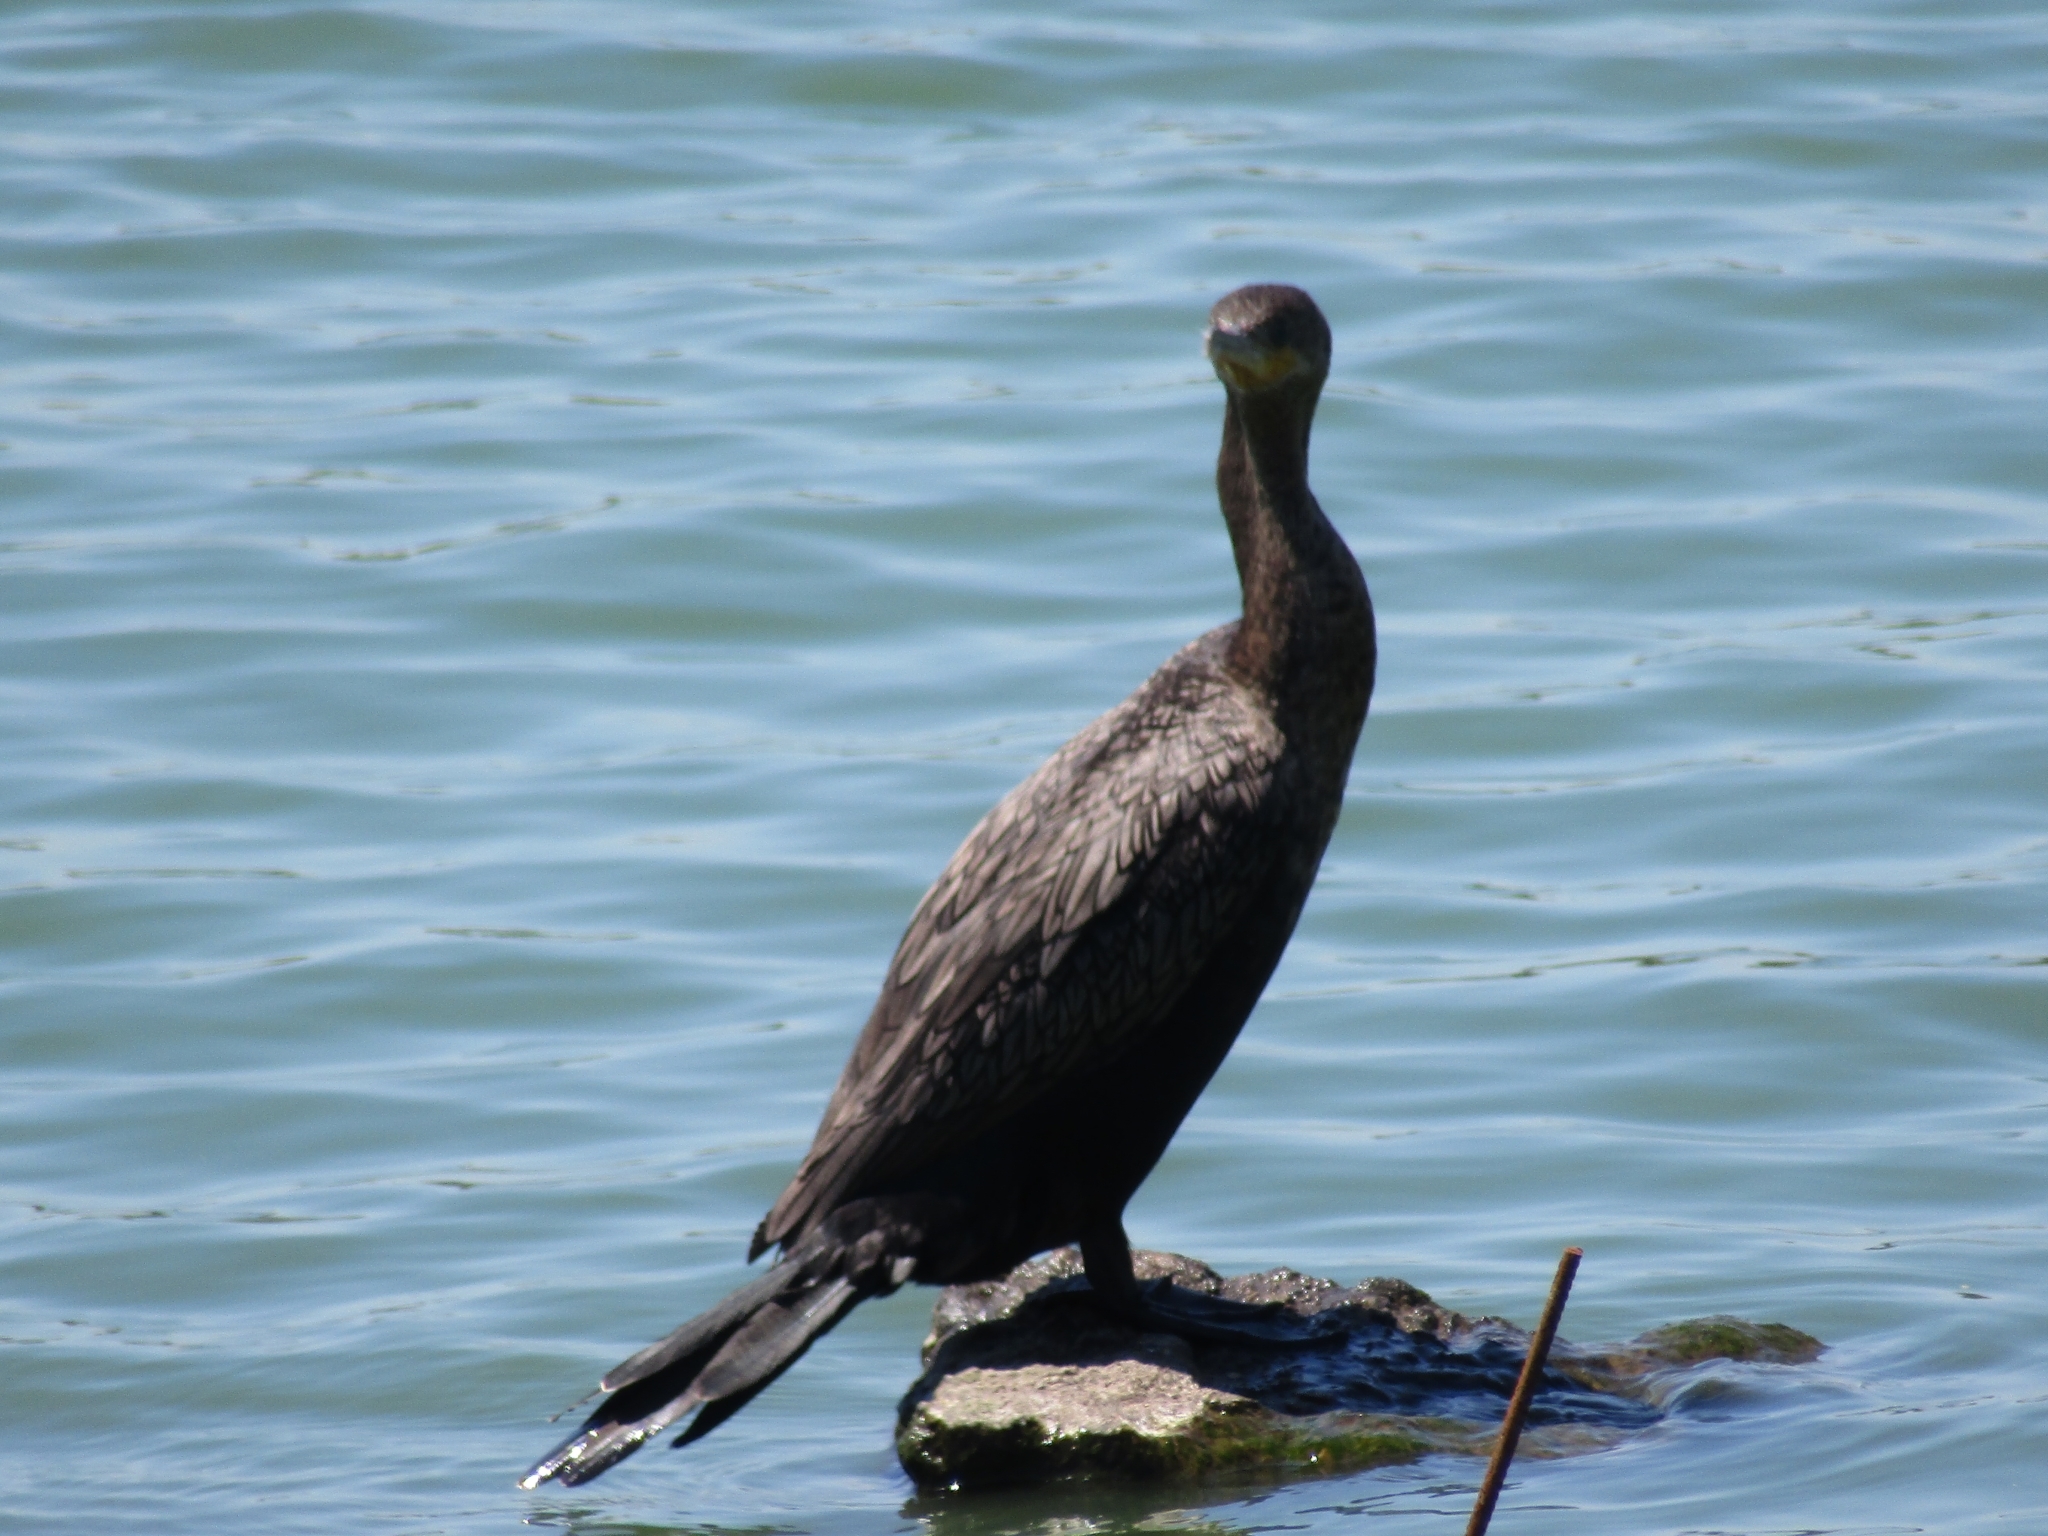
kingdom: Animalia
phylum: Chordata
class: Aves
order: Suliformes
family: Phalacrocoracidae
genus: Phalacrocorax
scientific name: Phalacrocorax brasilianus
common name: Neotropic cormorant
